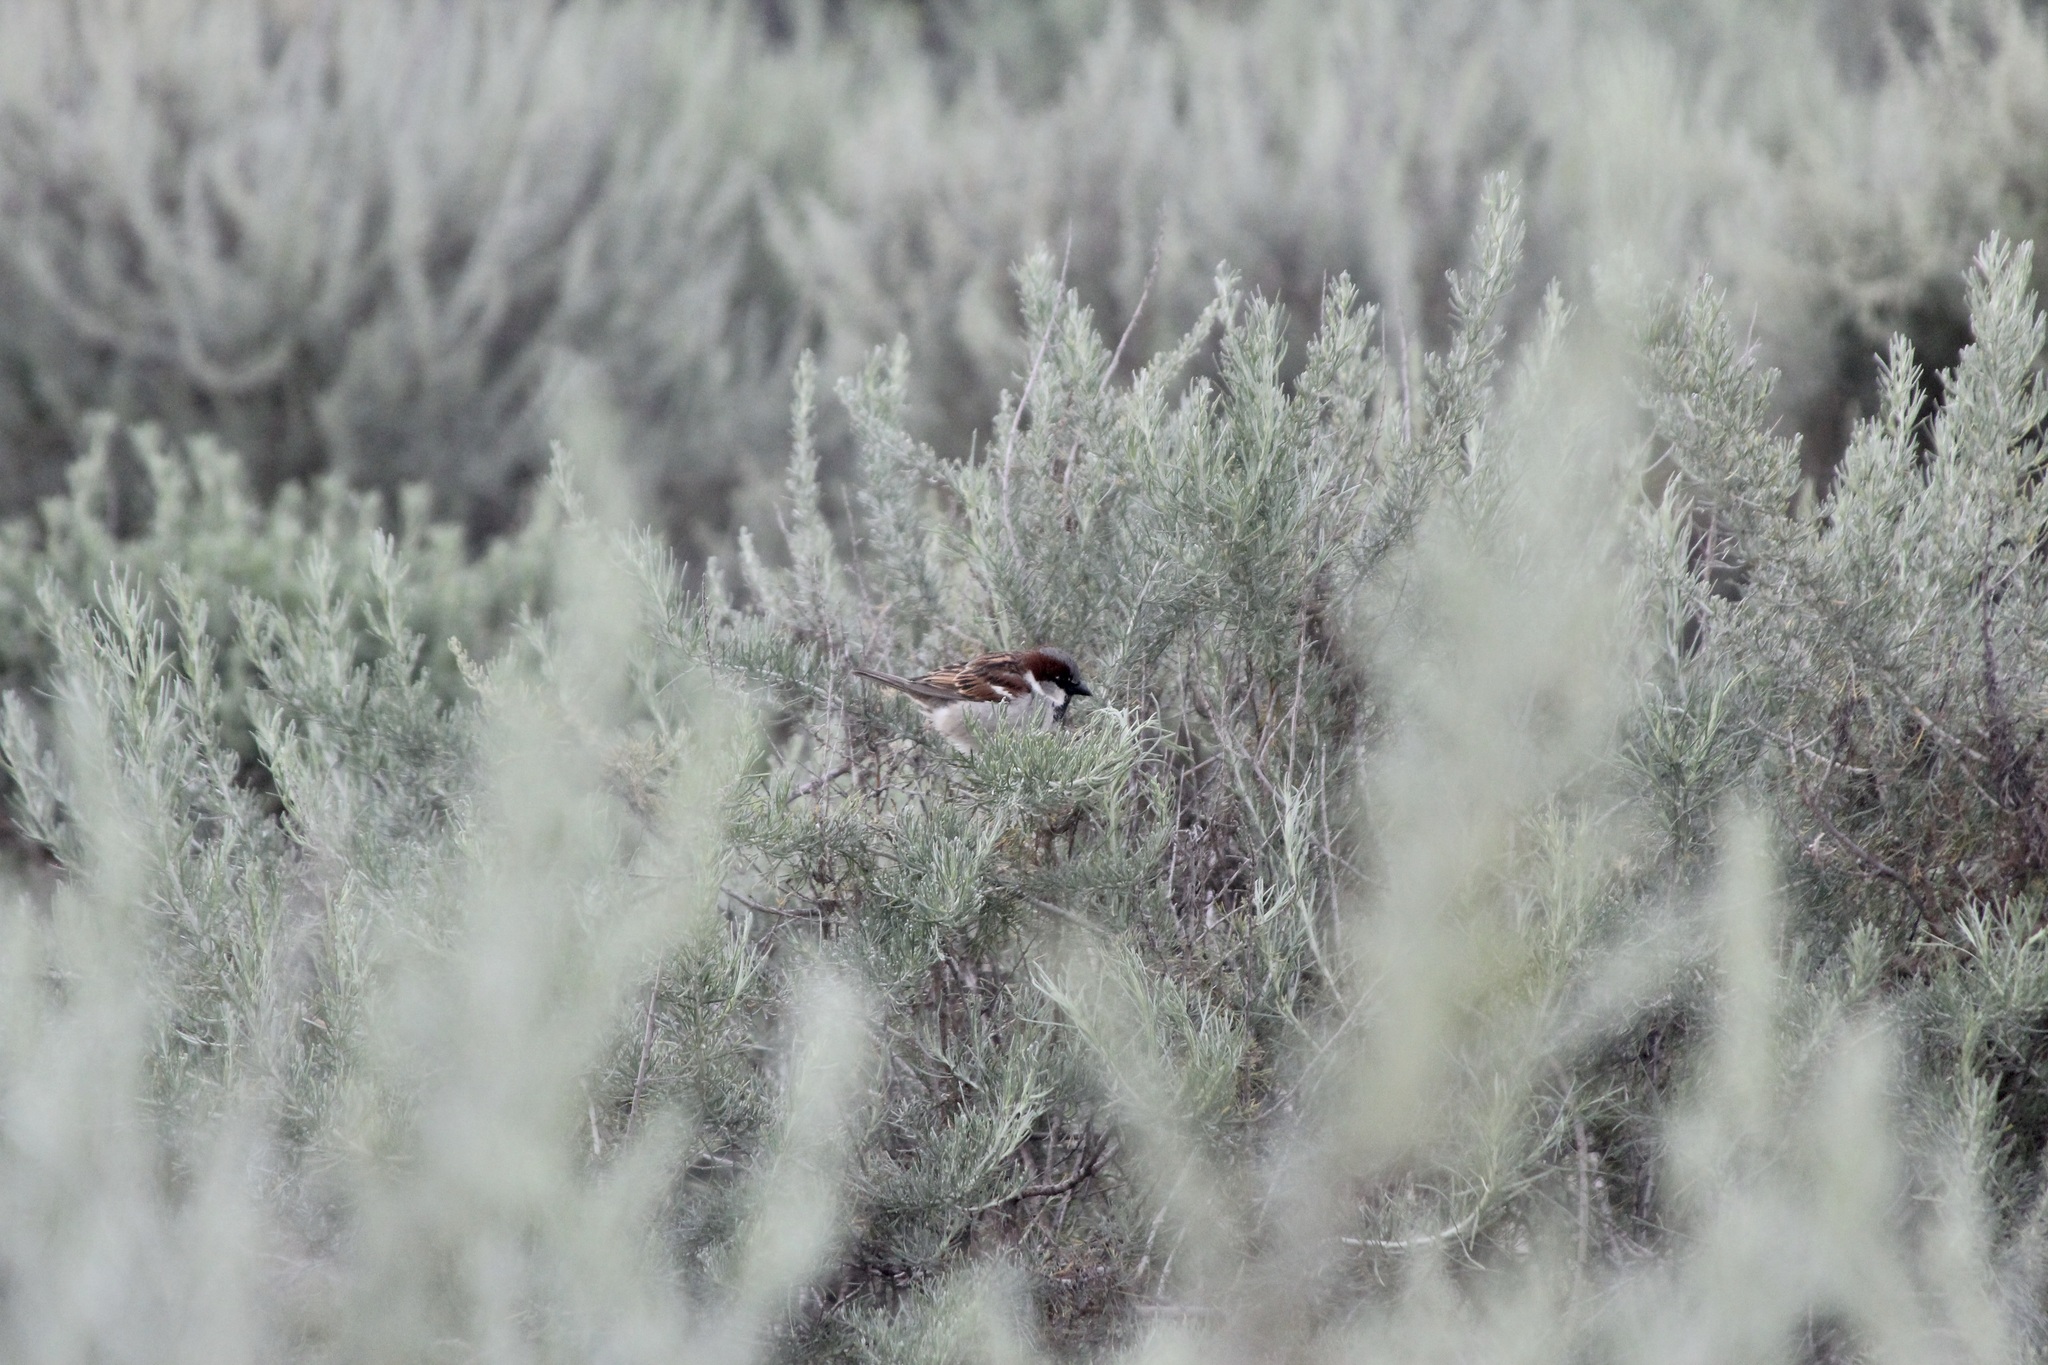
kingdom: Animalia
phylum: Chordata
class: Aves
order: Passeriformes
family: Passeridae
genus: Passer
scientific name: Passer domesticus
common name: House sparrow
